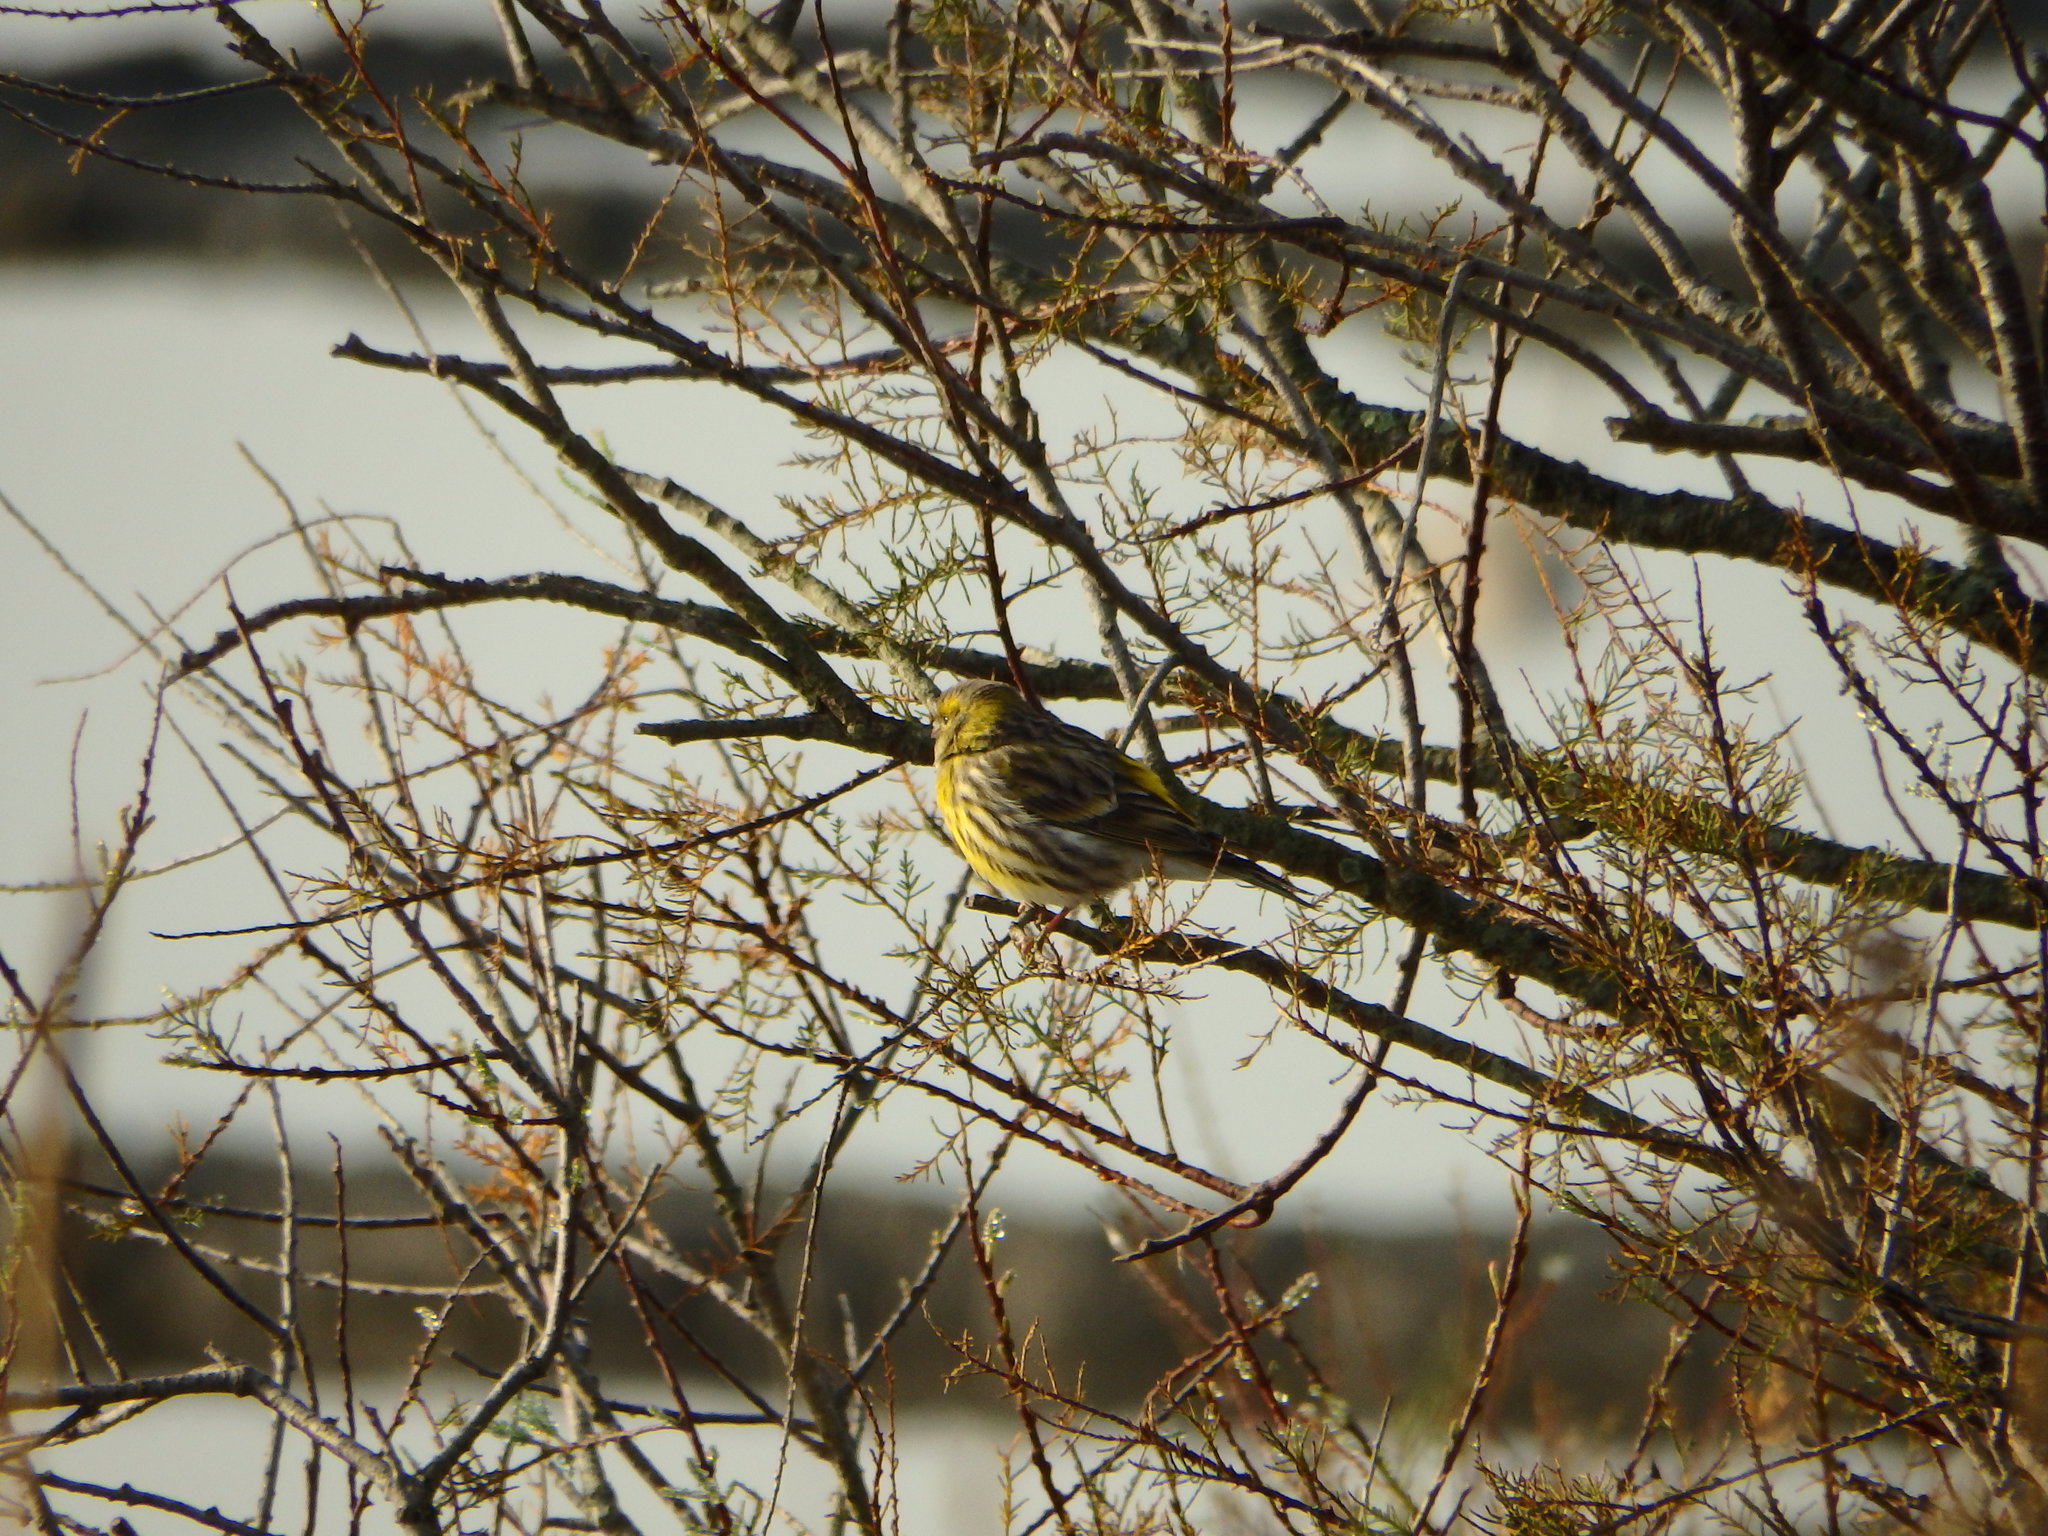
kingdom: Animalia
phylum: Chordata
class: Aves
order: Passeriformes
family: Fringillidae
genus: Serinus
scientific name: Serinus serinus
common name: European serin
